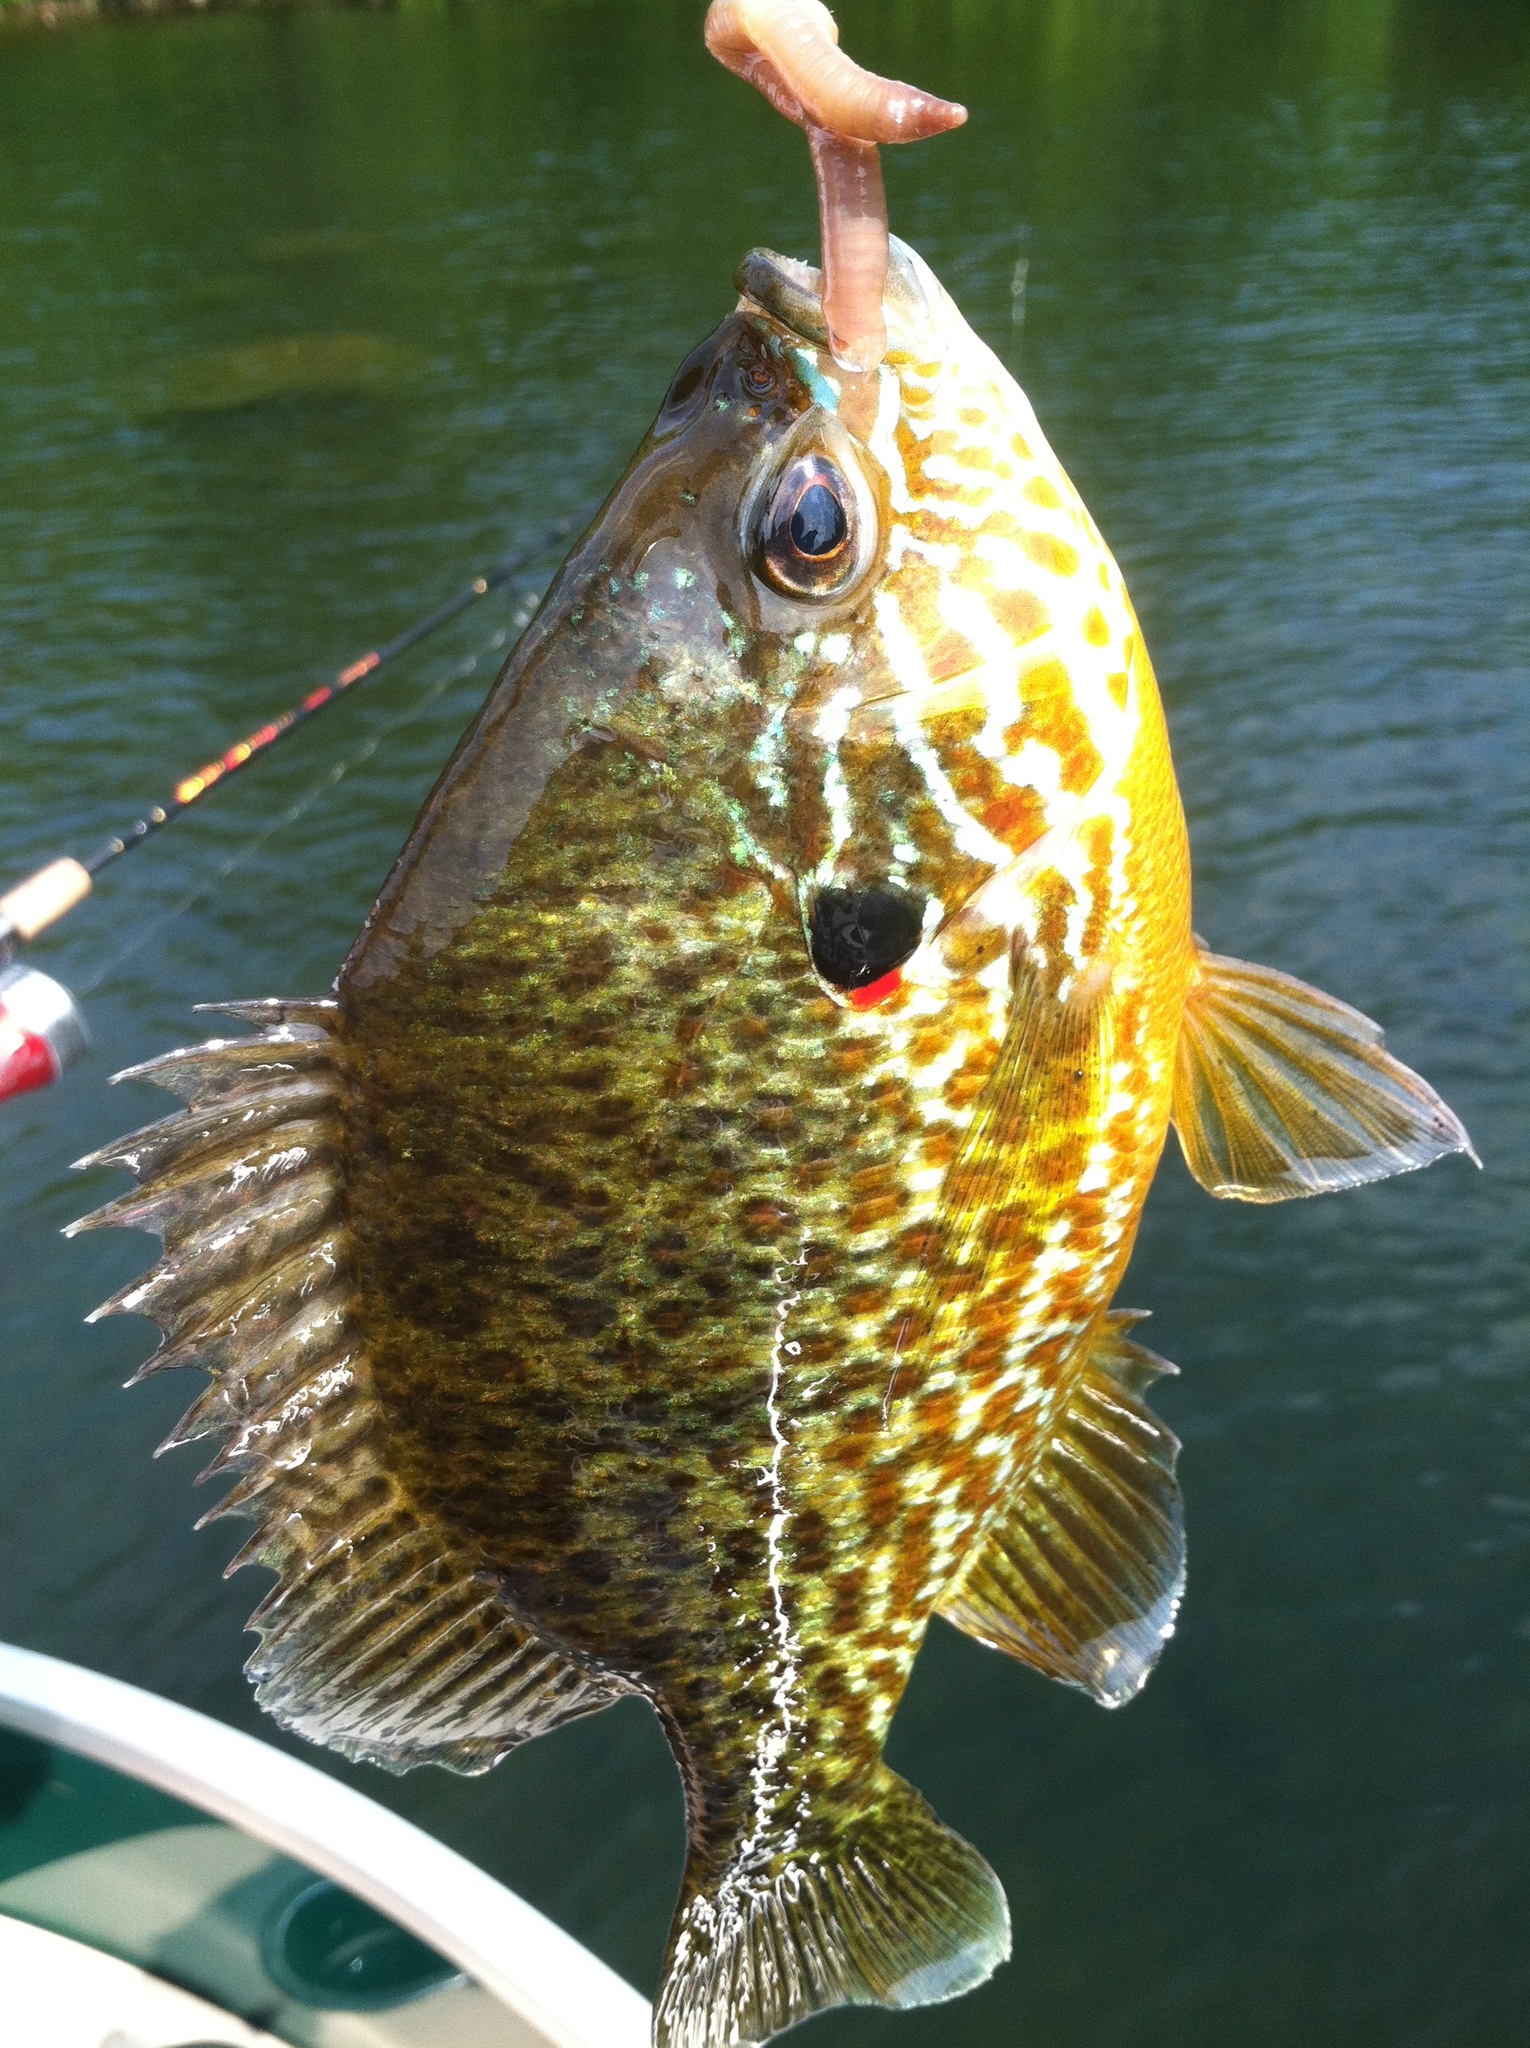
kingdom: Animalia
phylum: Chordata
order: Perciformes
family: Centrarchidae
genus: Lepomis
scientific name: Lepomis gibbosus
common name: Pumpkinseed
